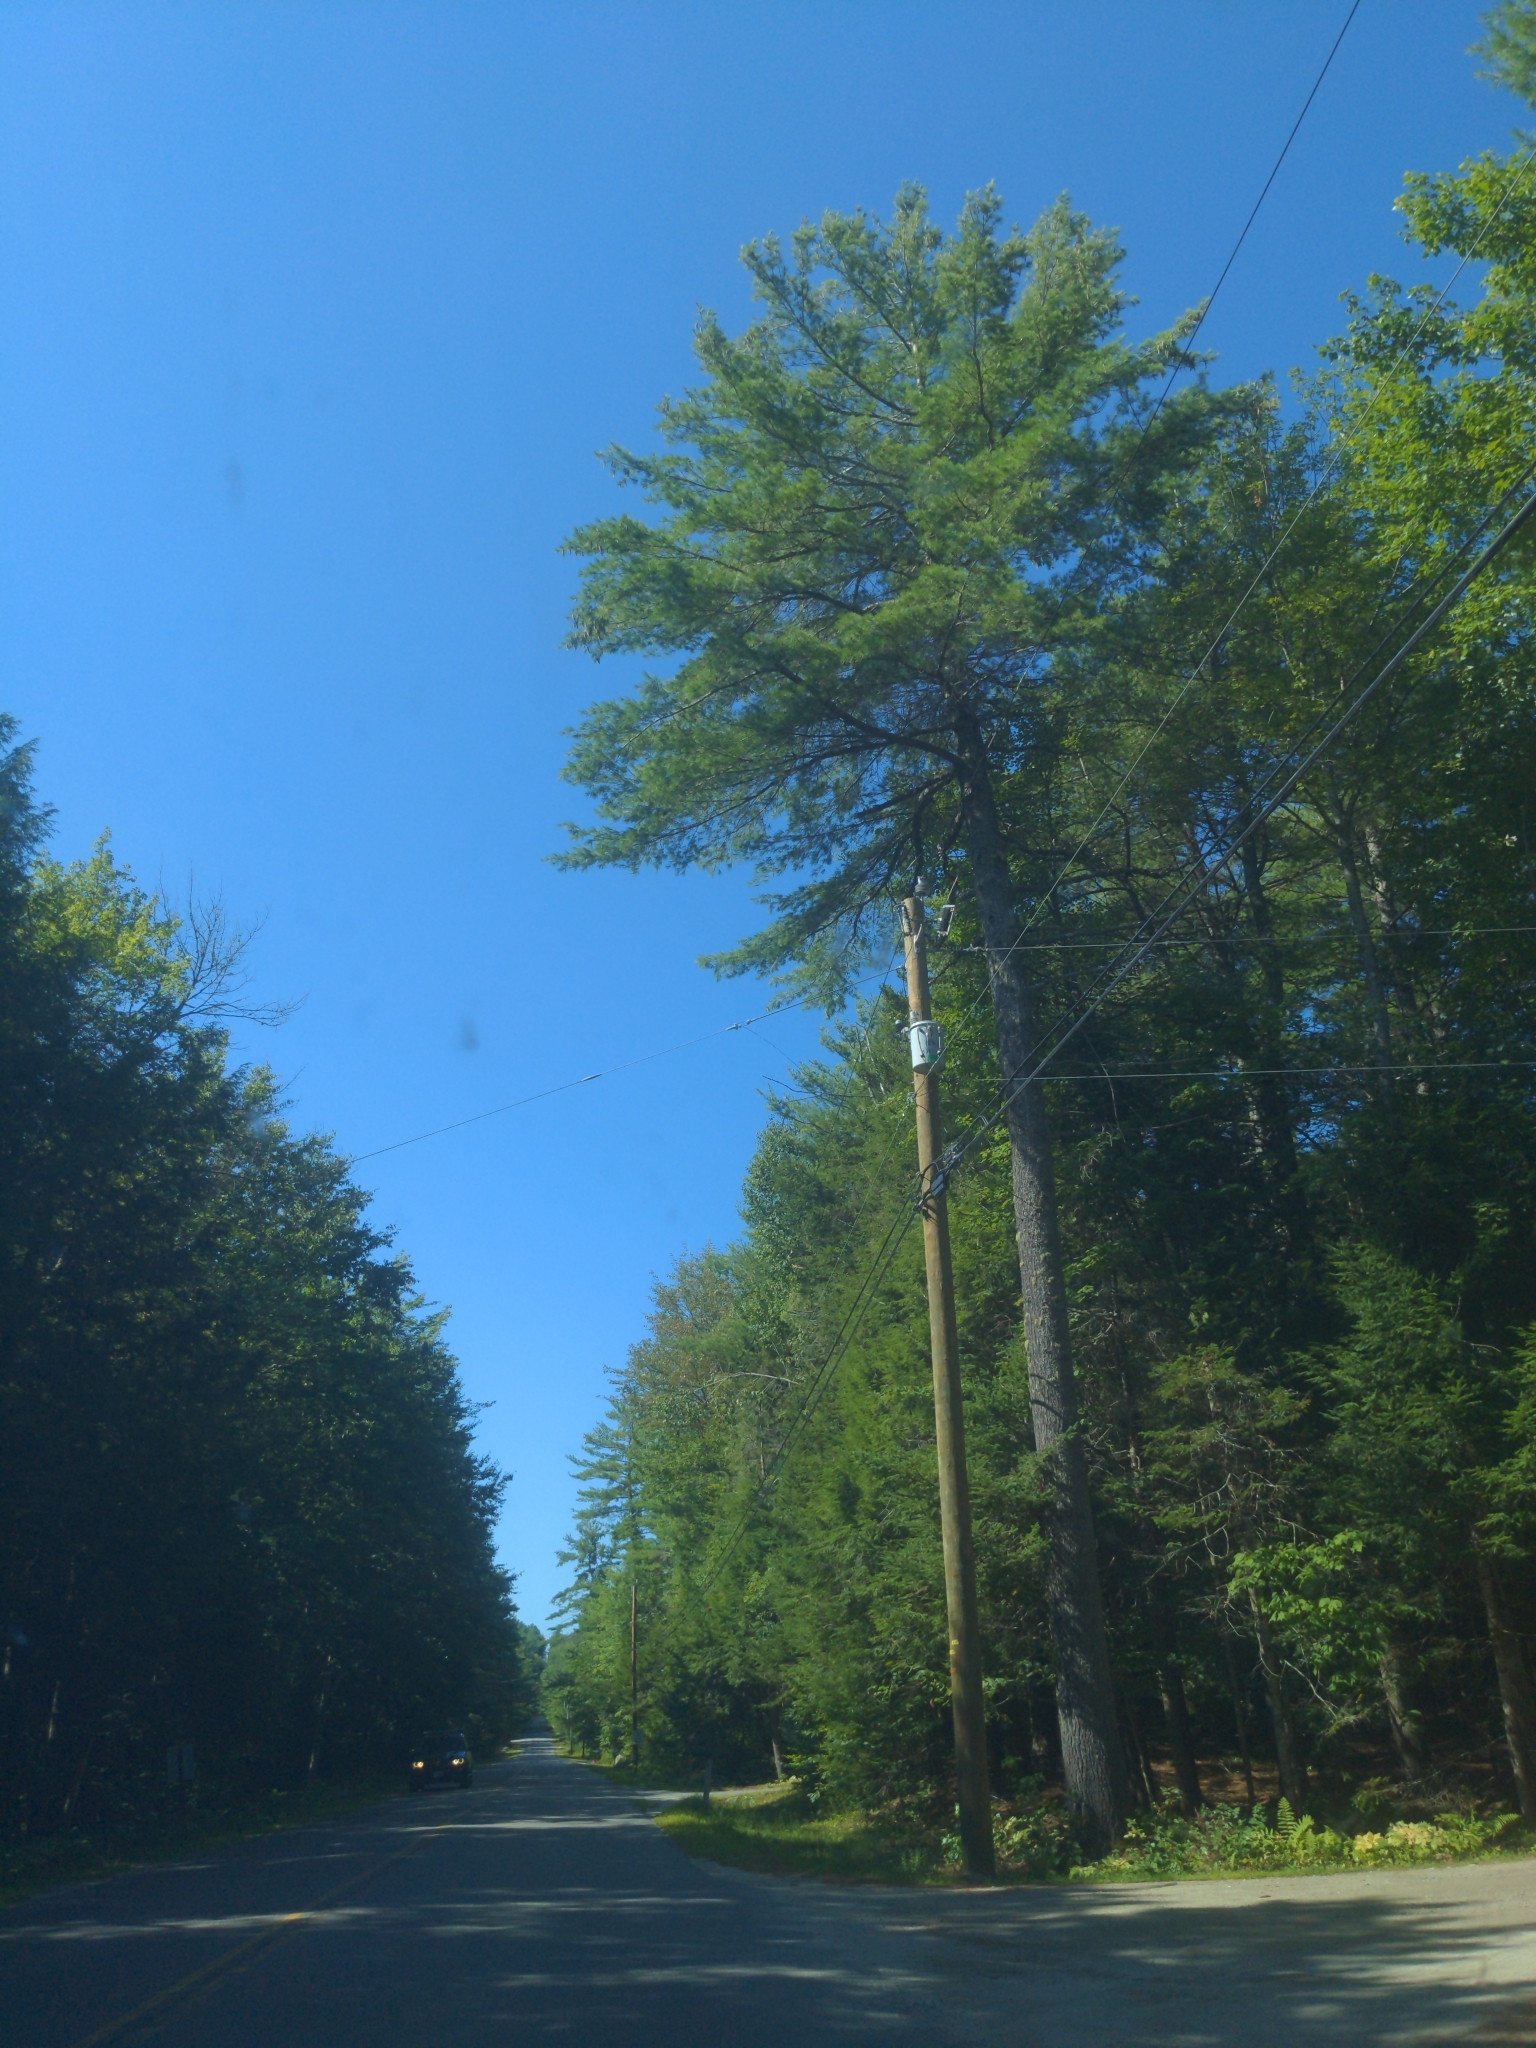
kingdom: Plantae
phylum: Tracheophyta
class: Pinopsida
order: Pinales
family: Pinaceae
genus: Pinus
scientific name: Pinus strobus
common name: Weymouth pine
